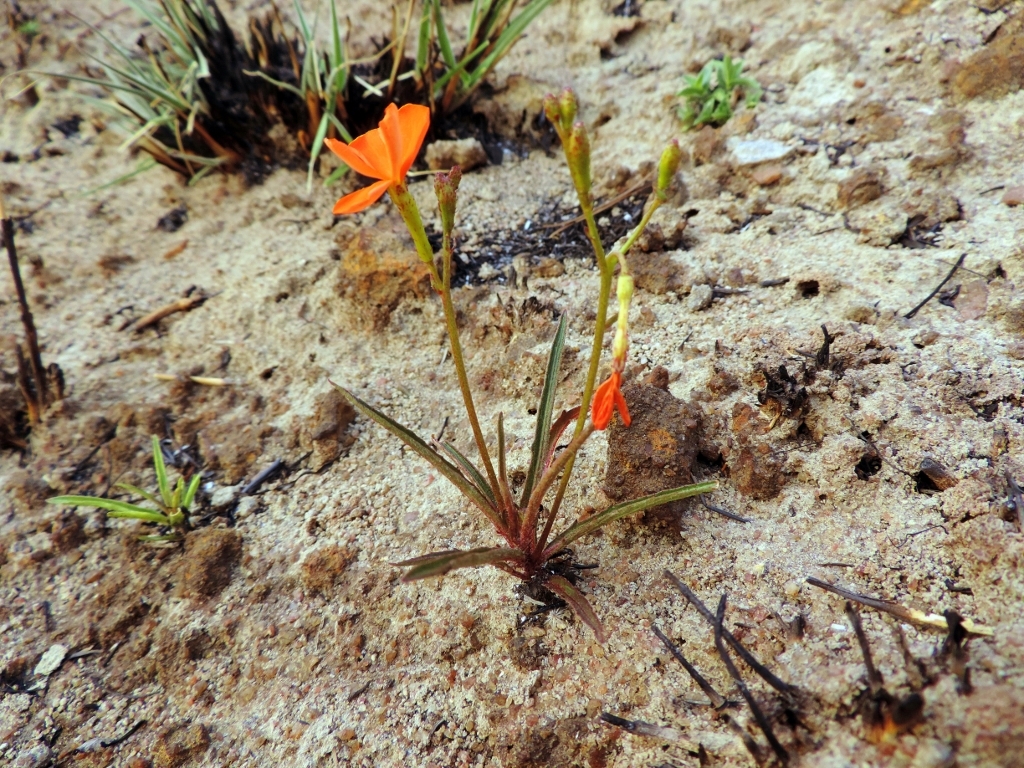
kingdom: Plantae
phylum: Tracheophyta
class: Magnoliopsida
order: Malpighiales
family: Turneraceae
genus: Tricliceras
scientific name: Tricliceras longepedunculatum
